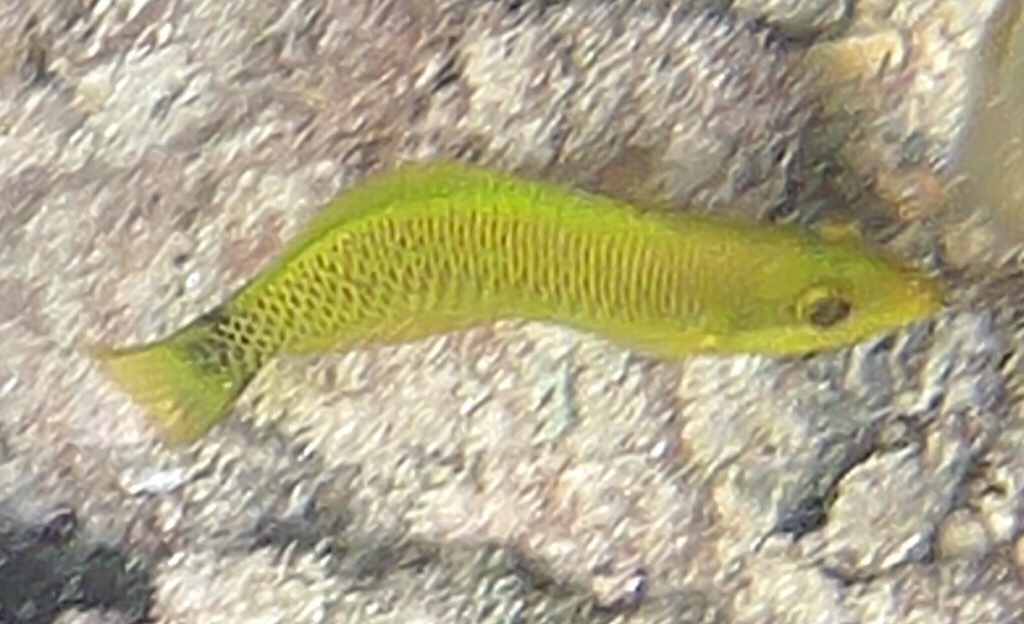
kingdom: Animalia
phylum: Chordata
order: Perciformes
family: Labridae
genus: Thalassoma
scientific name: Thalassoma ballieui
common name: Ballieu's wrasse
